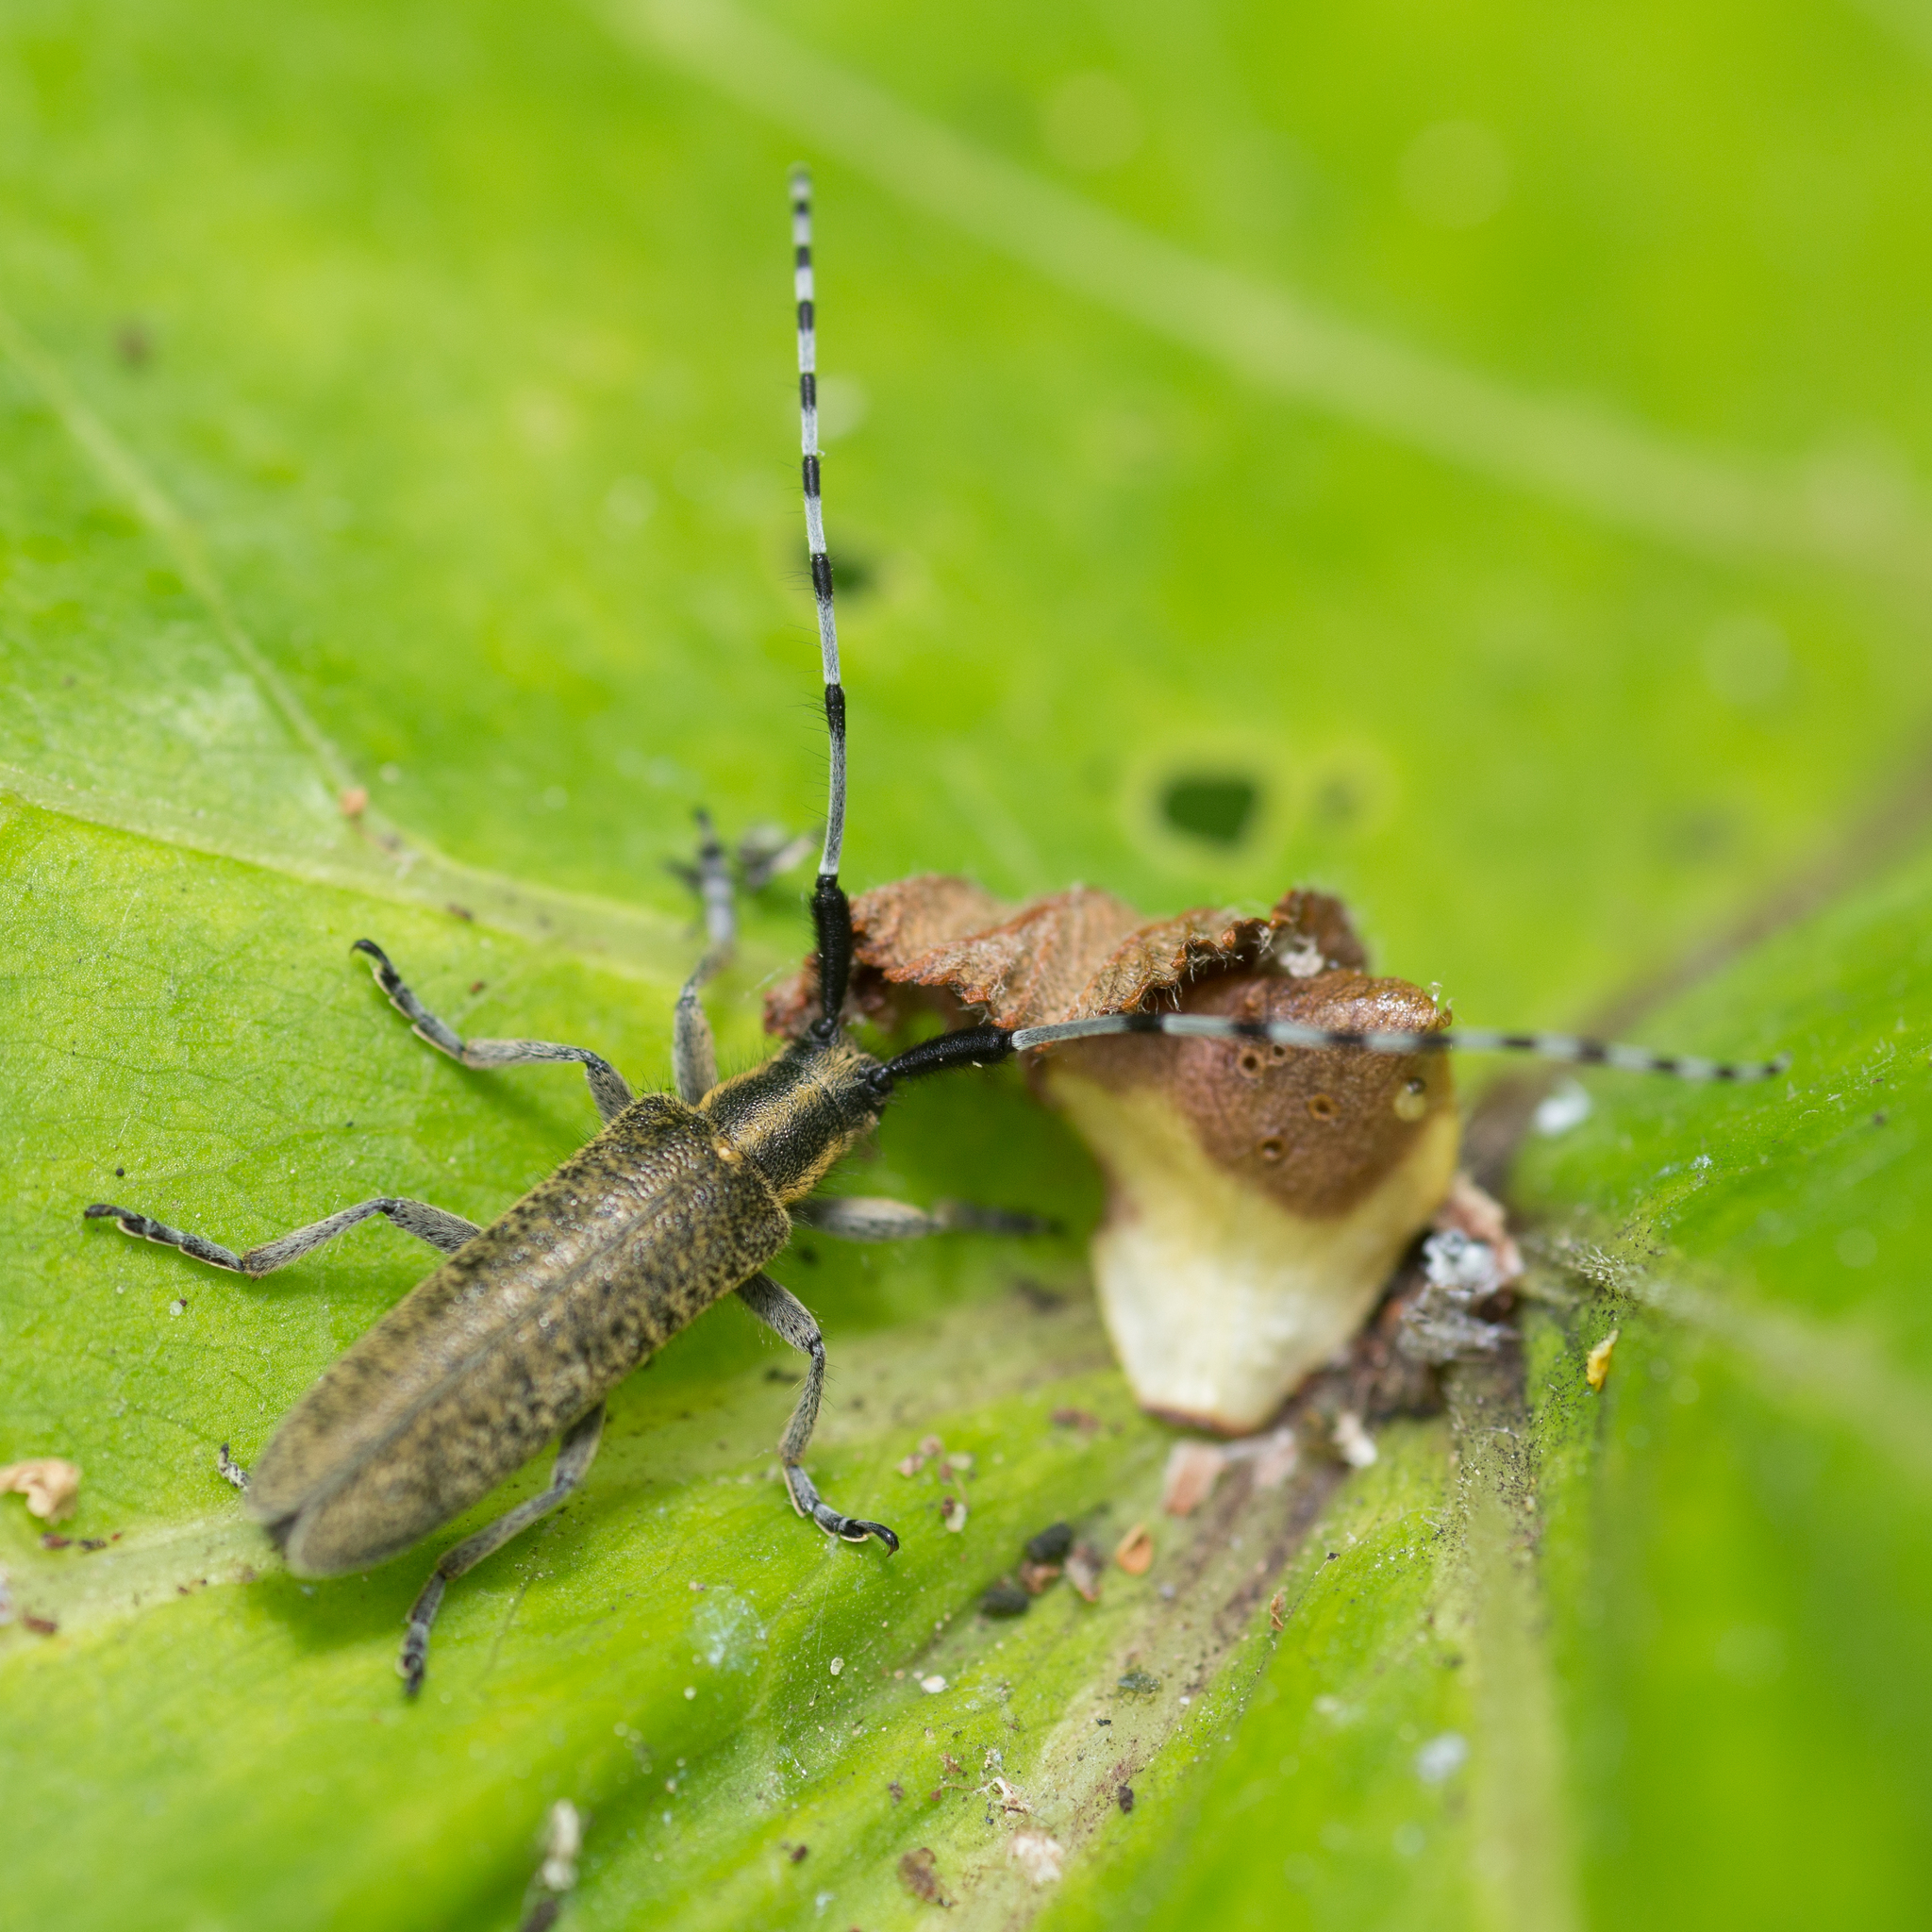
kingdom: Animalia
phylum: Arthropoda
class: Insecta
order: Coleoptera
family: Cerambycidae
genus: Agapanthia
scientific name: Agapanthia villosoviridescens
